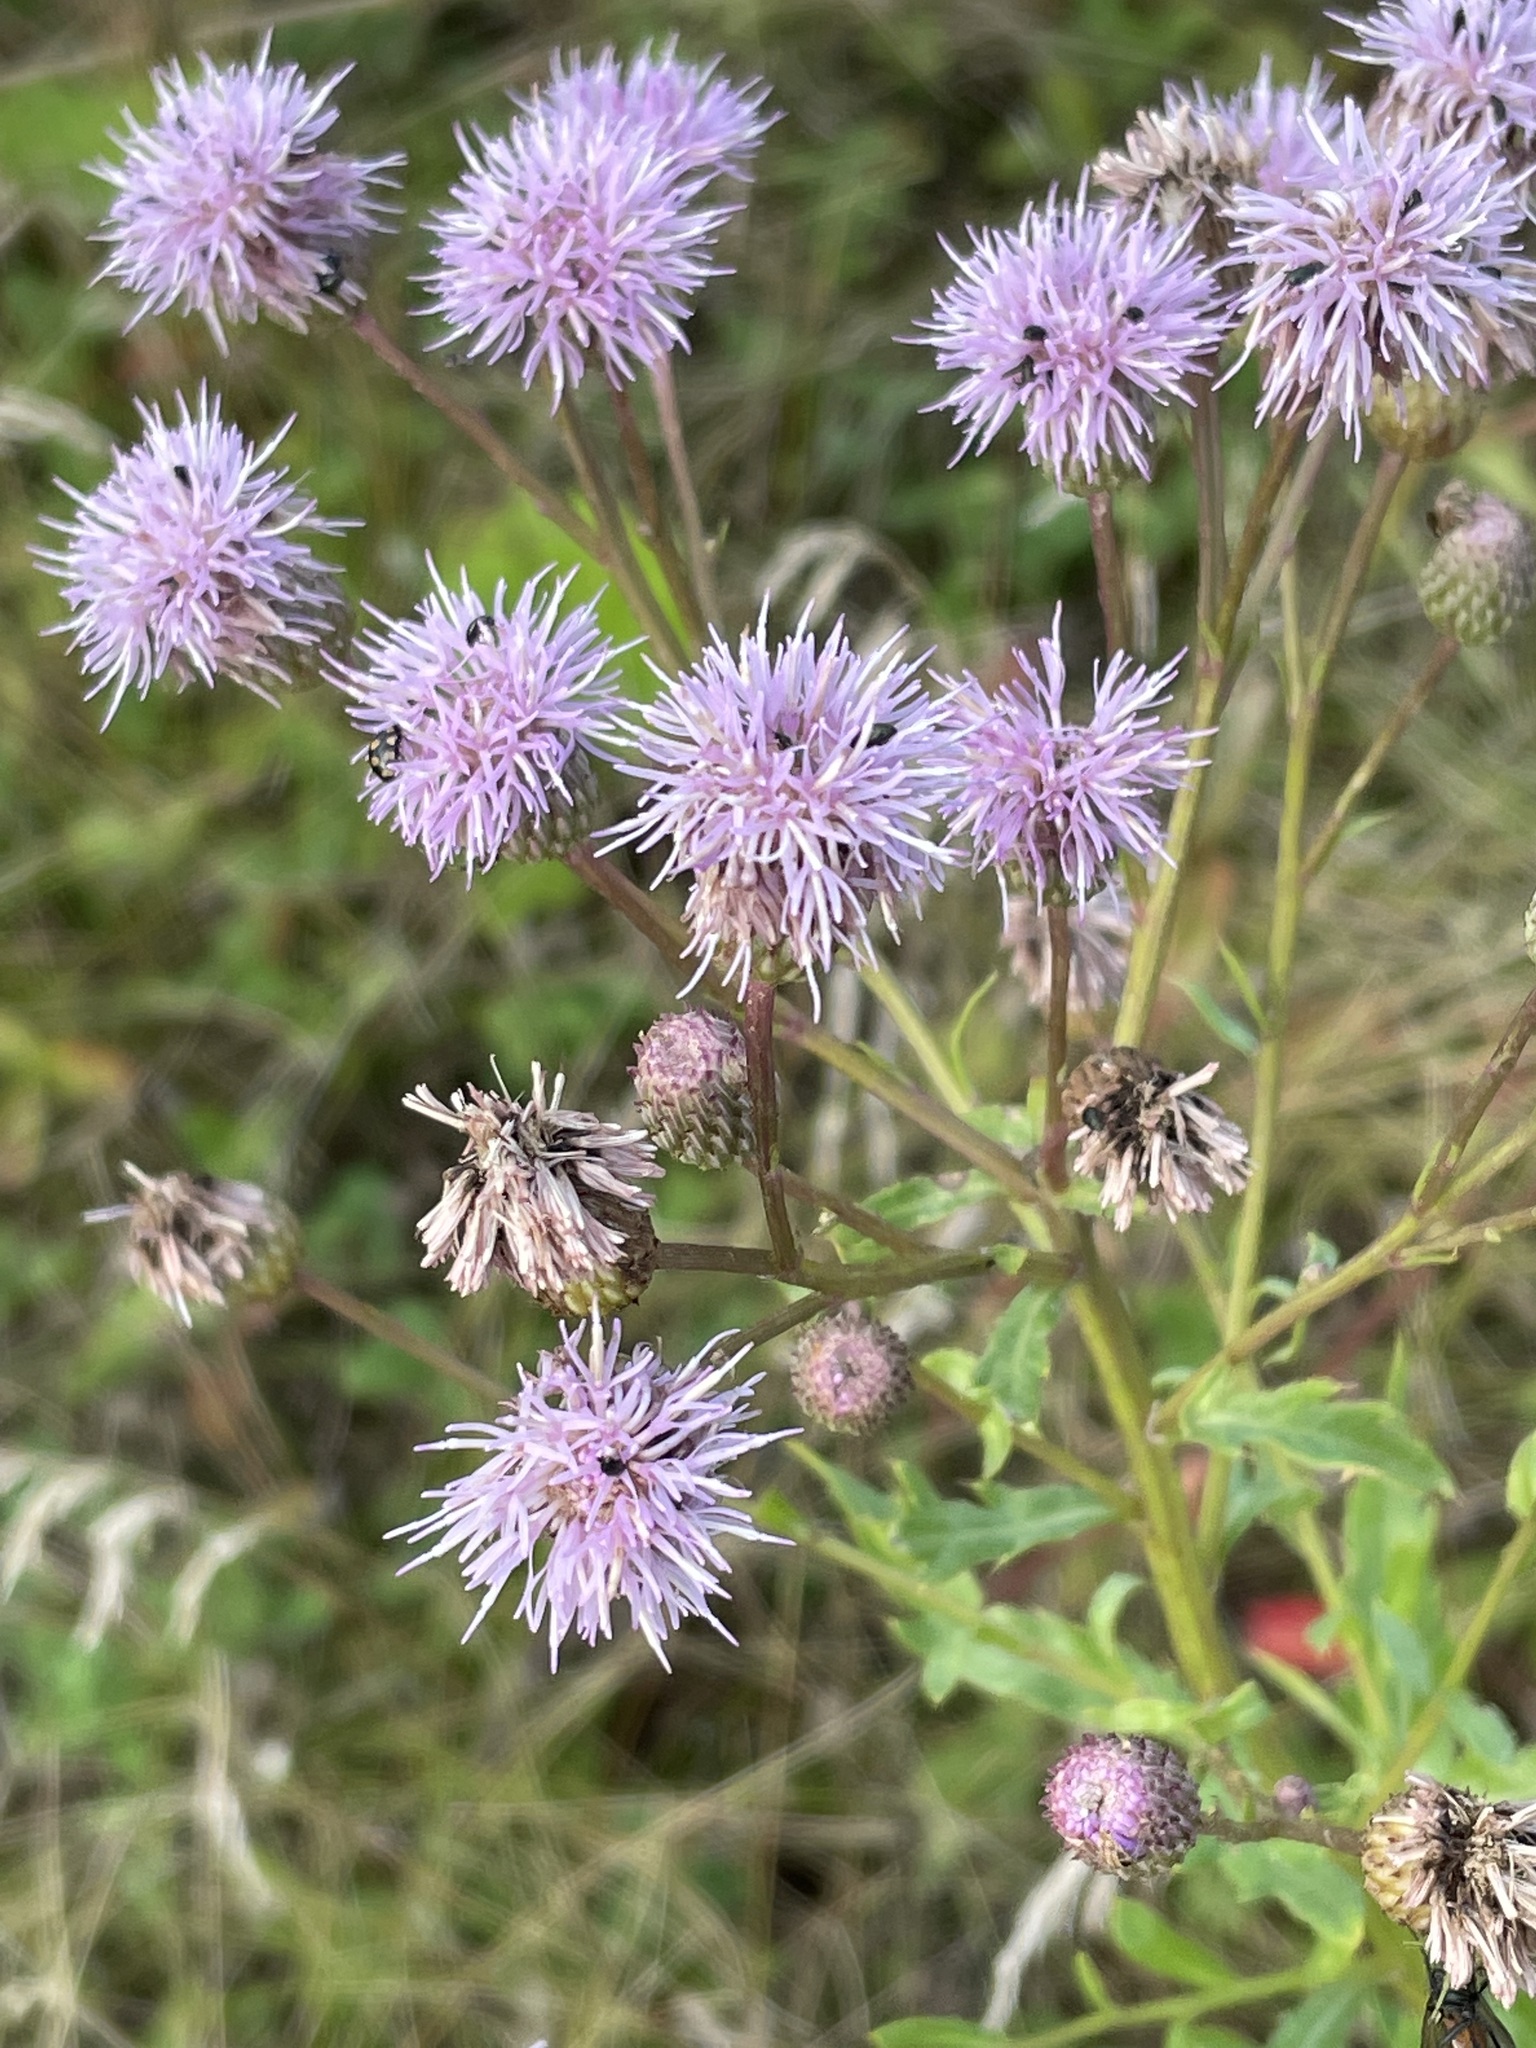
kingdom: Plantae
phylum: Tracheophyta
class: Magnoliopsida
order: Asterales
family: Asteraceae
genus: Cirsium
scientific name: Cirsium arvense
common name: Creeping thistle
